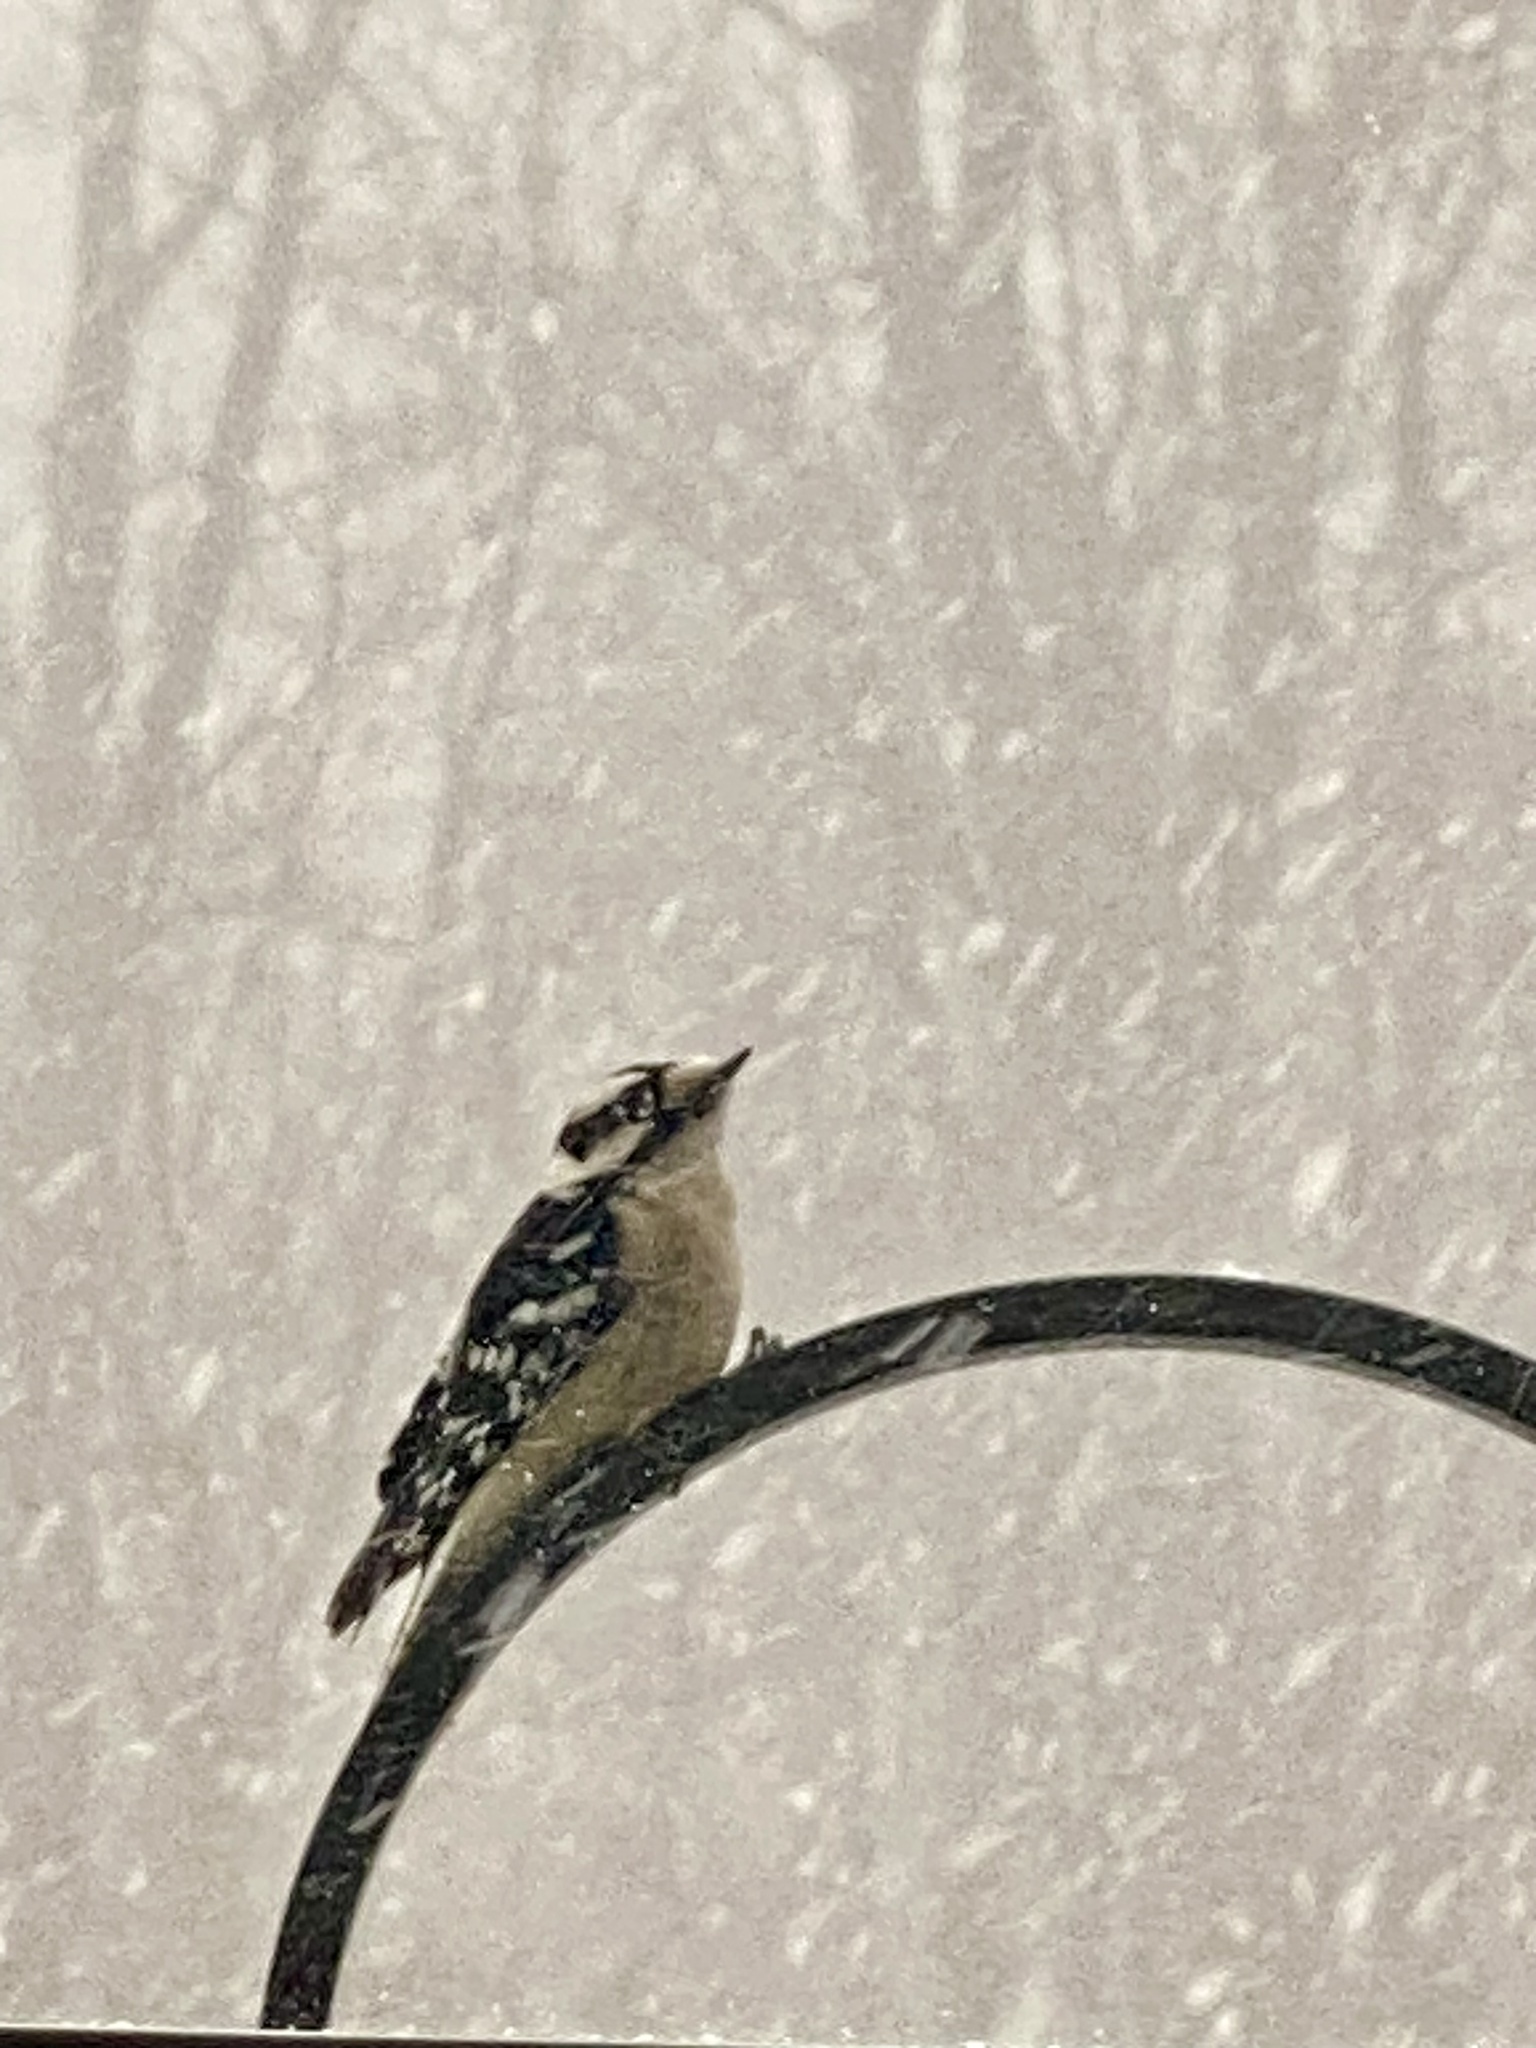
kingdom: Animalia
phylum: Chordata
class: Aves
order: Piciformes
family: Picidae
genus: Dryobates
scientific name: Dryobates pubescens
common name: Downy woodpecker
